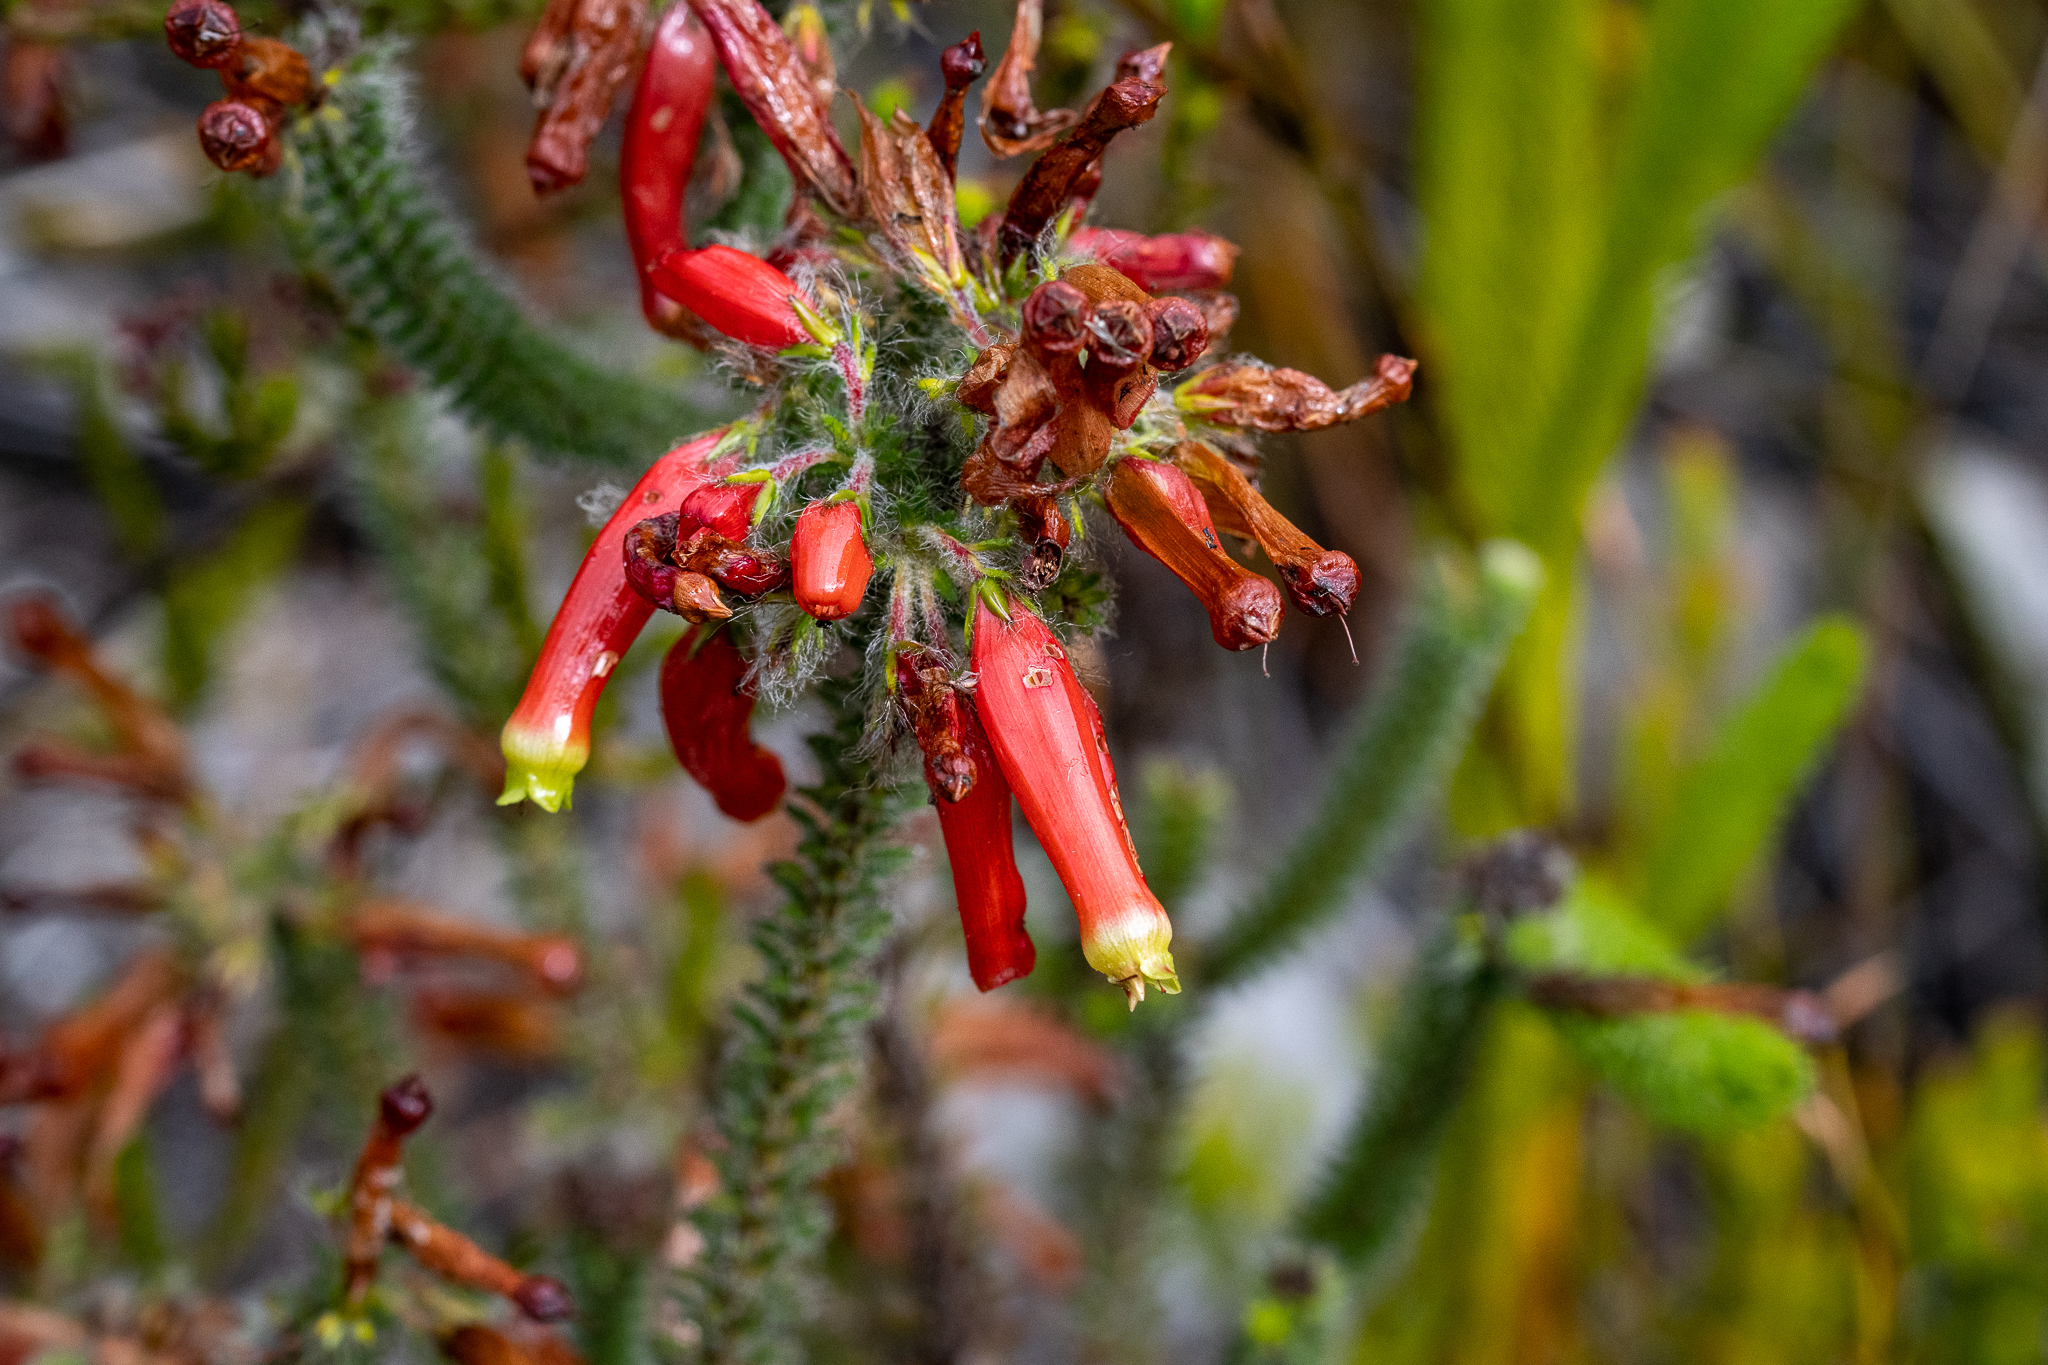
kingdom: Plantae
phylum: Tracheophyta
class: Magnoliopsida
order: Ericales
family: Ericaceae
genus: Erica
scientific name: Erica massonii
